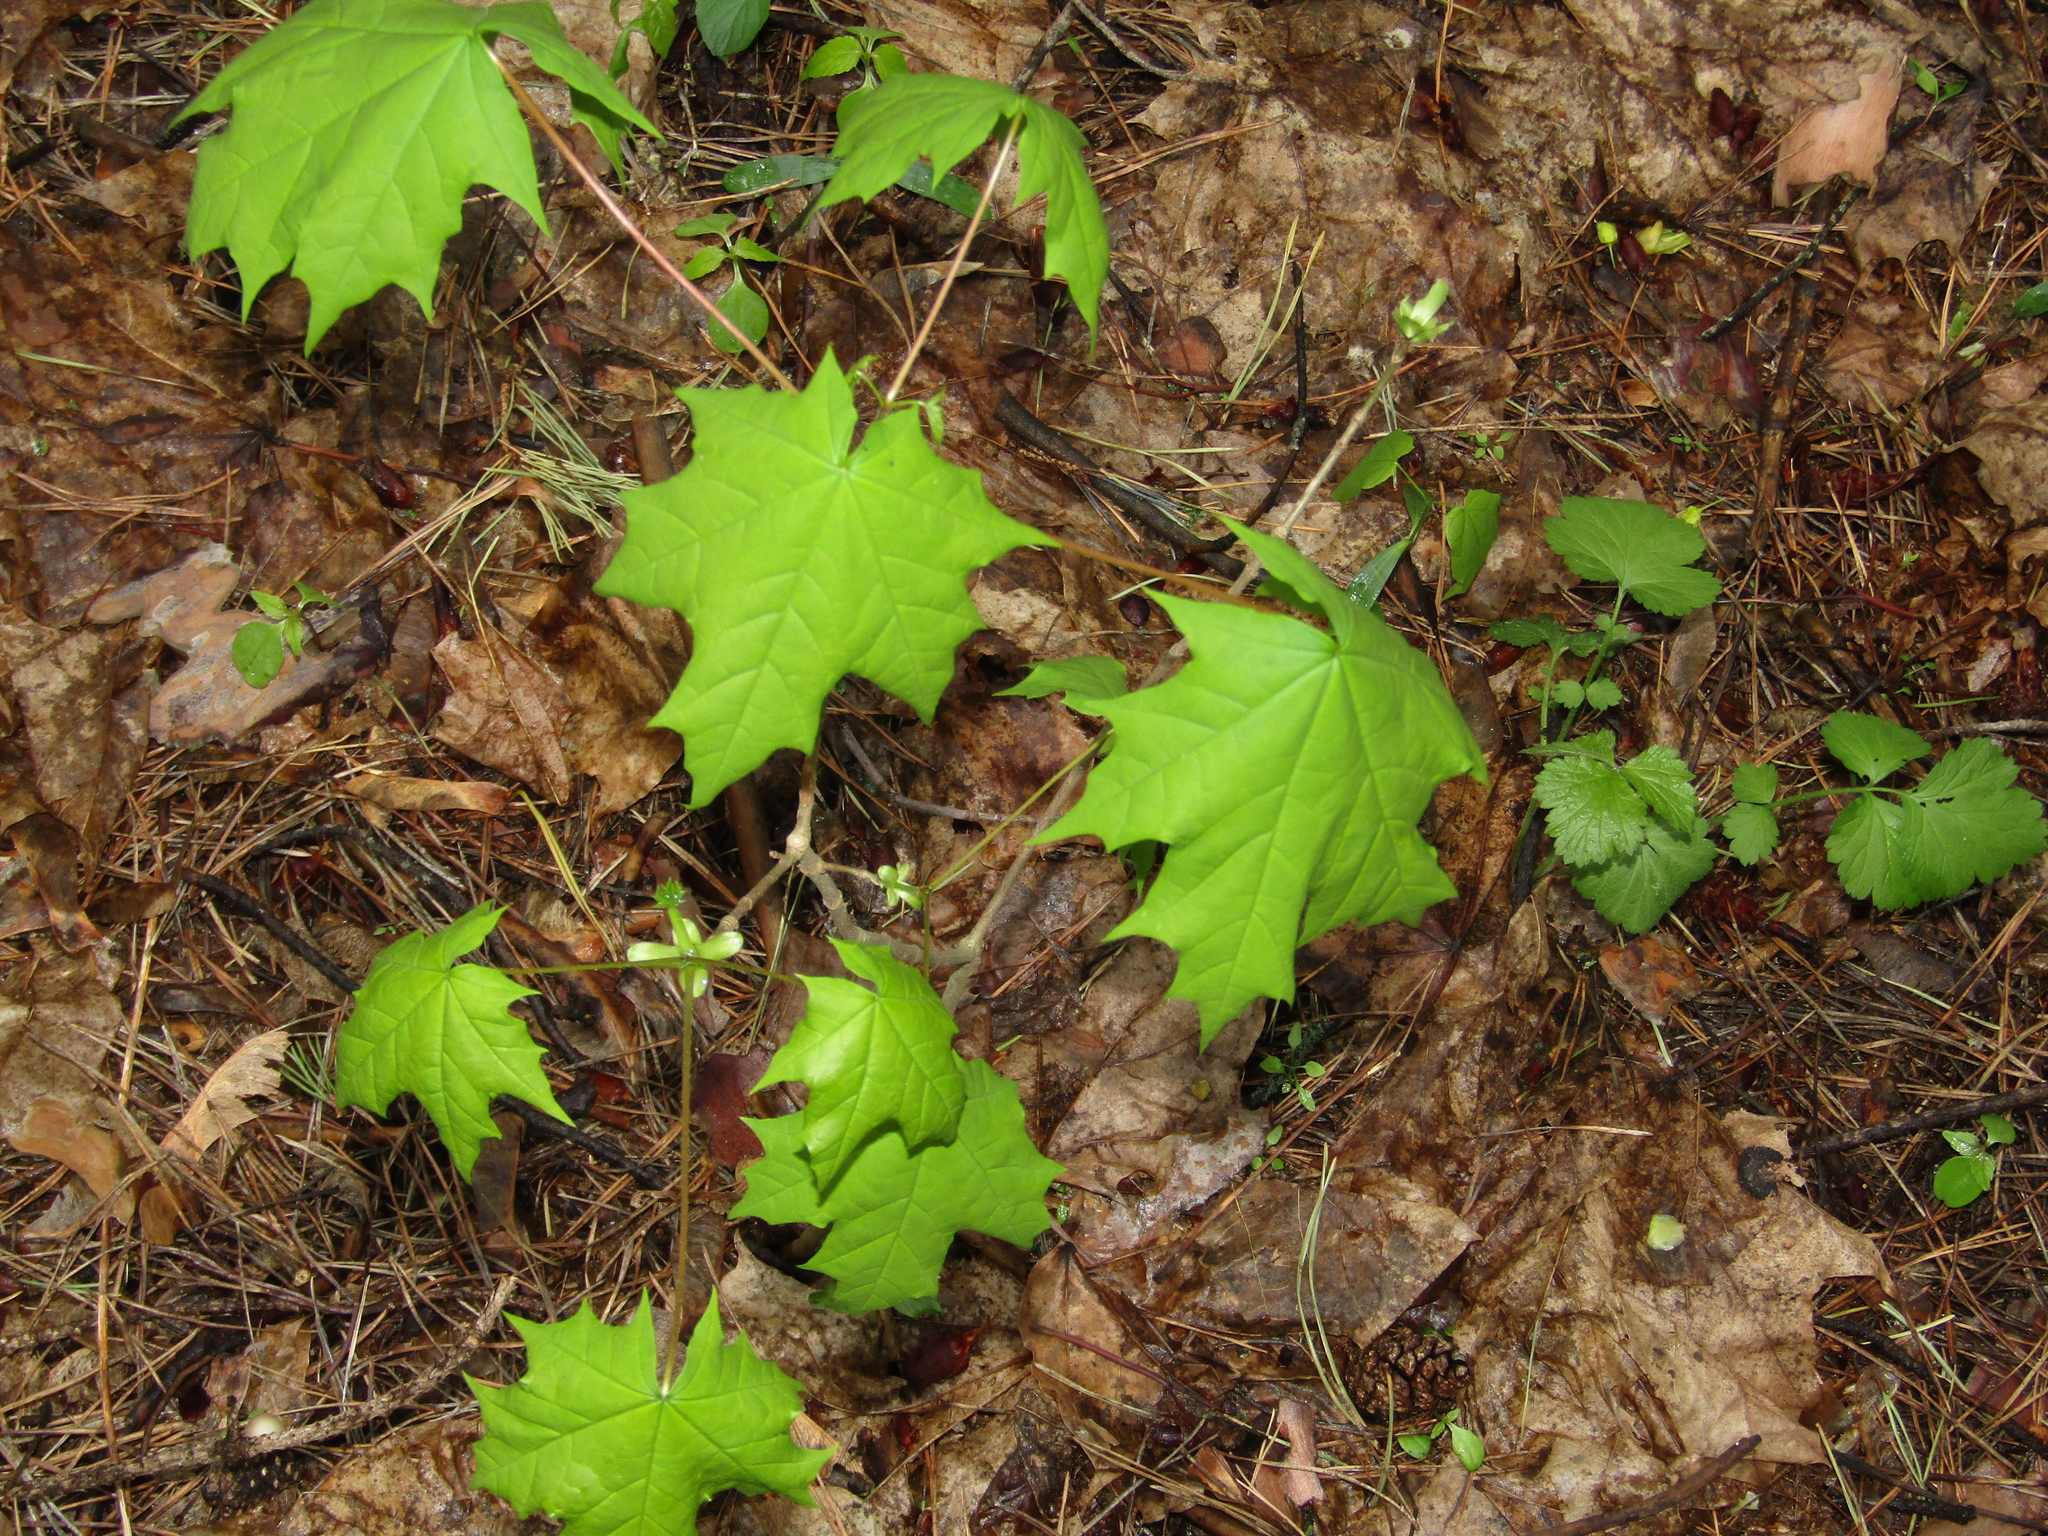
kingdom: Plantae
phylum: Tracheophyta
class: Magnoliopsida
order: Sapindales
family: Sapindaceae
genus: Acer
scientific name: Acer platanoides
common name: Norway maple
